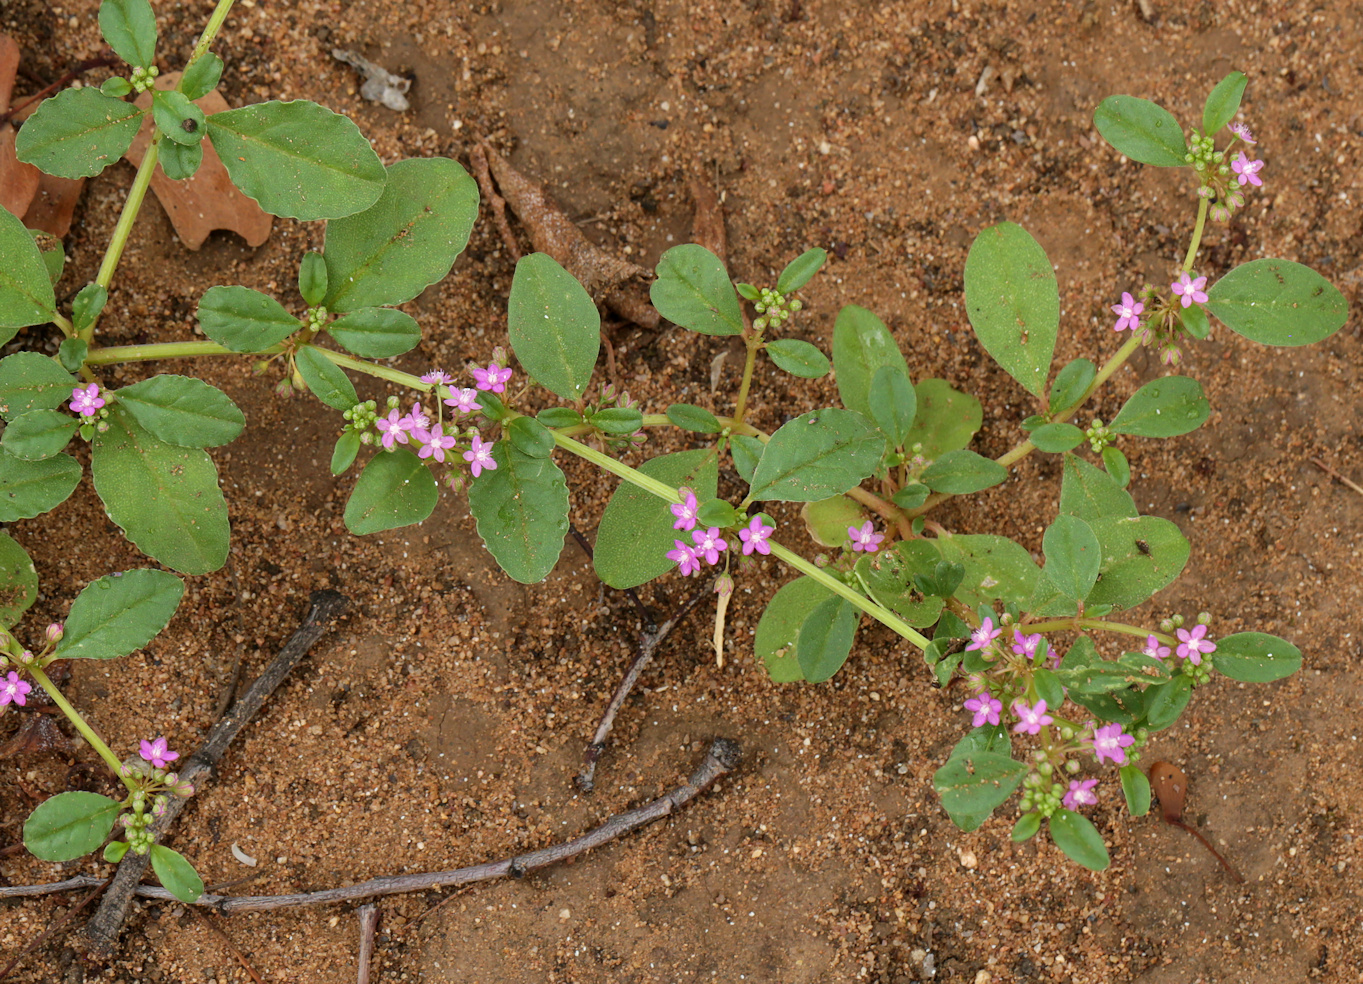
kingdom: Plantae
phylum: Tracheophyta
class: Magnoliopsida
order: Caryophyllales
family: Gisekiaceae
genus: Gisekia
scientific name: Gisekia pharnaceoides
